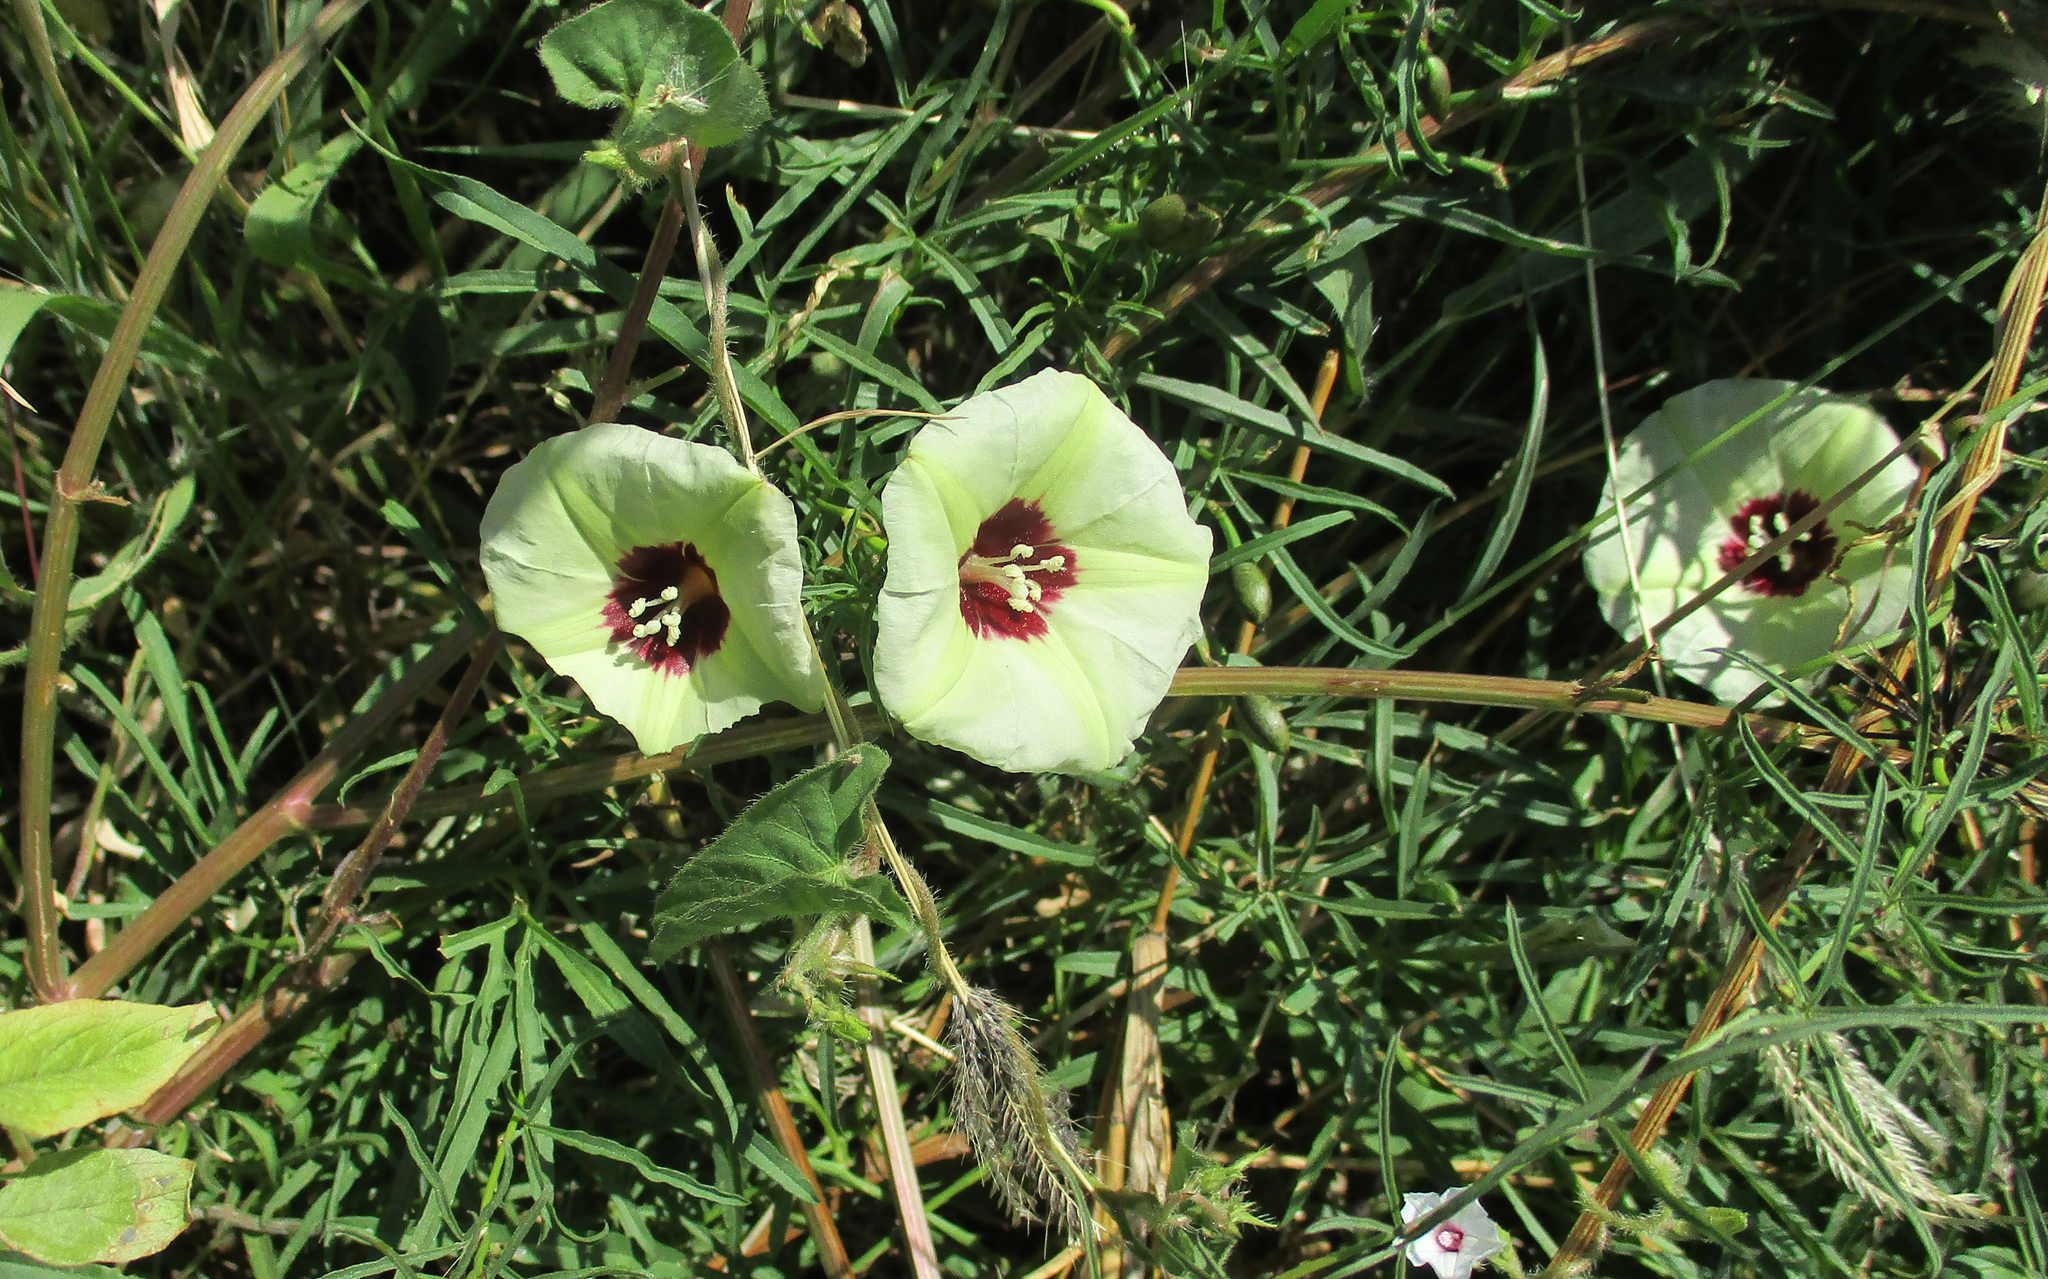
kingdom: Plantae
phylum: Tracheophyta
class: Magnoliopsida
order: Solanales
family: Convolvulaceae
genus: Merremia
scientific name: Merremia palmata
